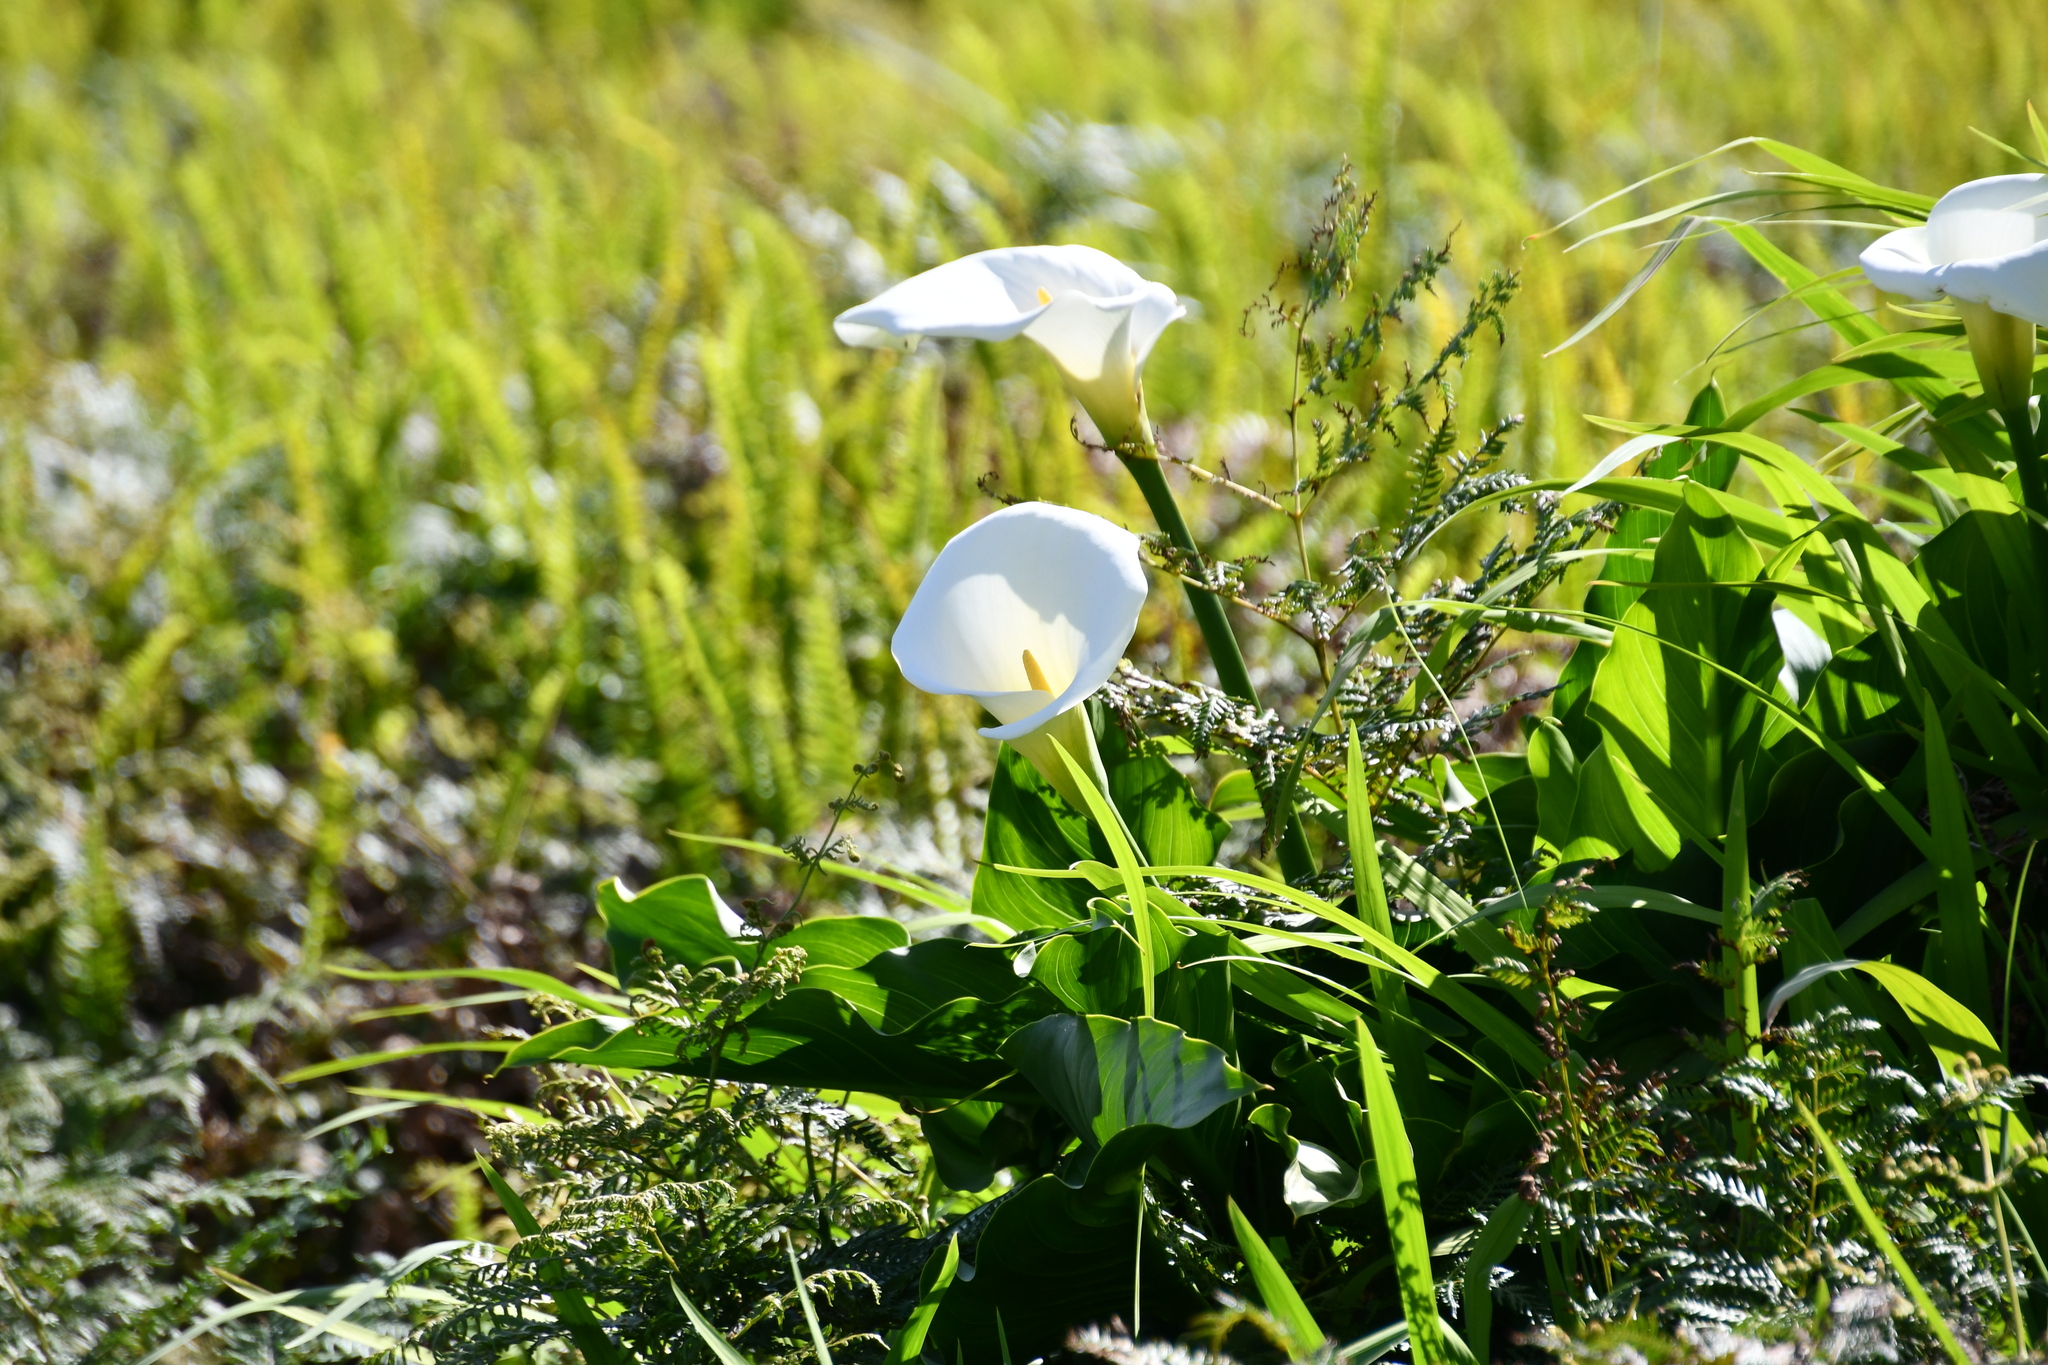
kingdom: Plantae
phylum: Tracheophyta
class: Liliopsida
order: Alismatales
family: Araceae
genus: Zantedeschia
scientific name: Zantedeschia aethiopica
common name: Altar-lily
